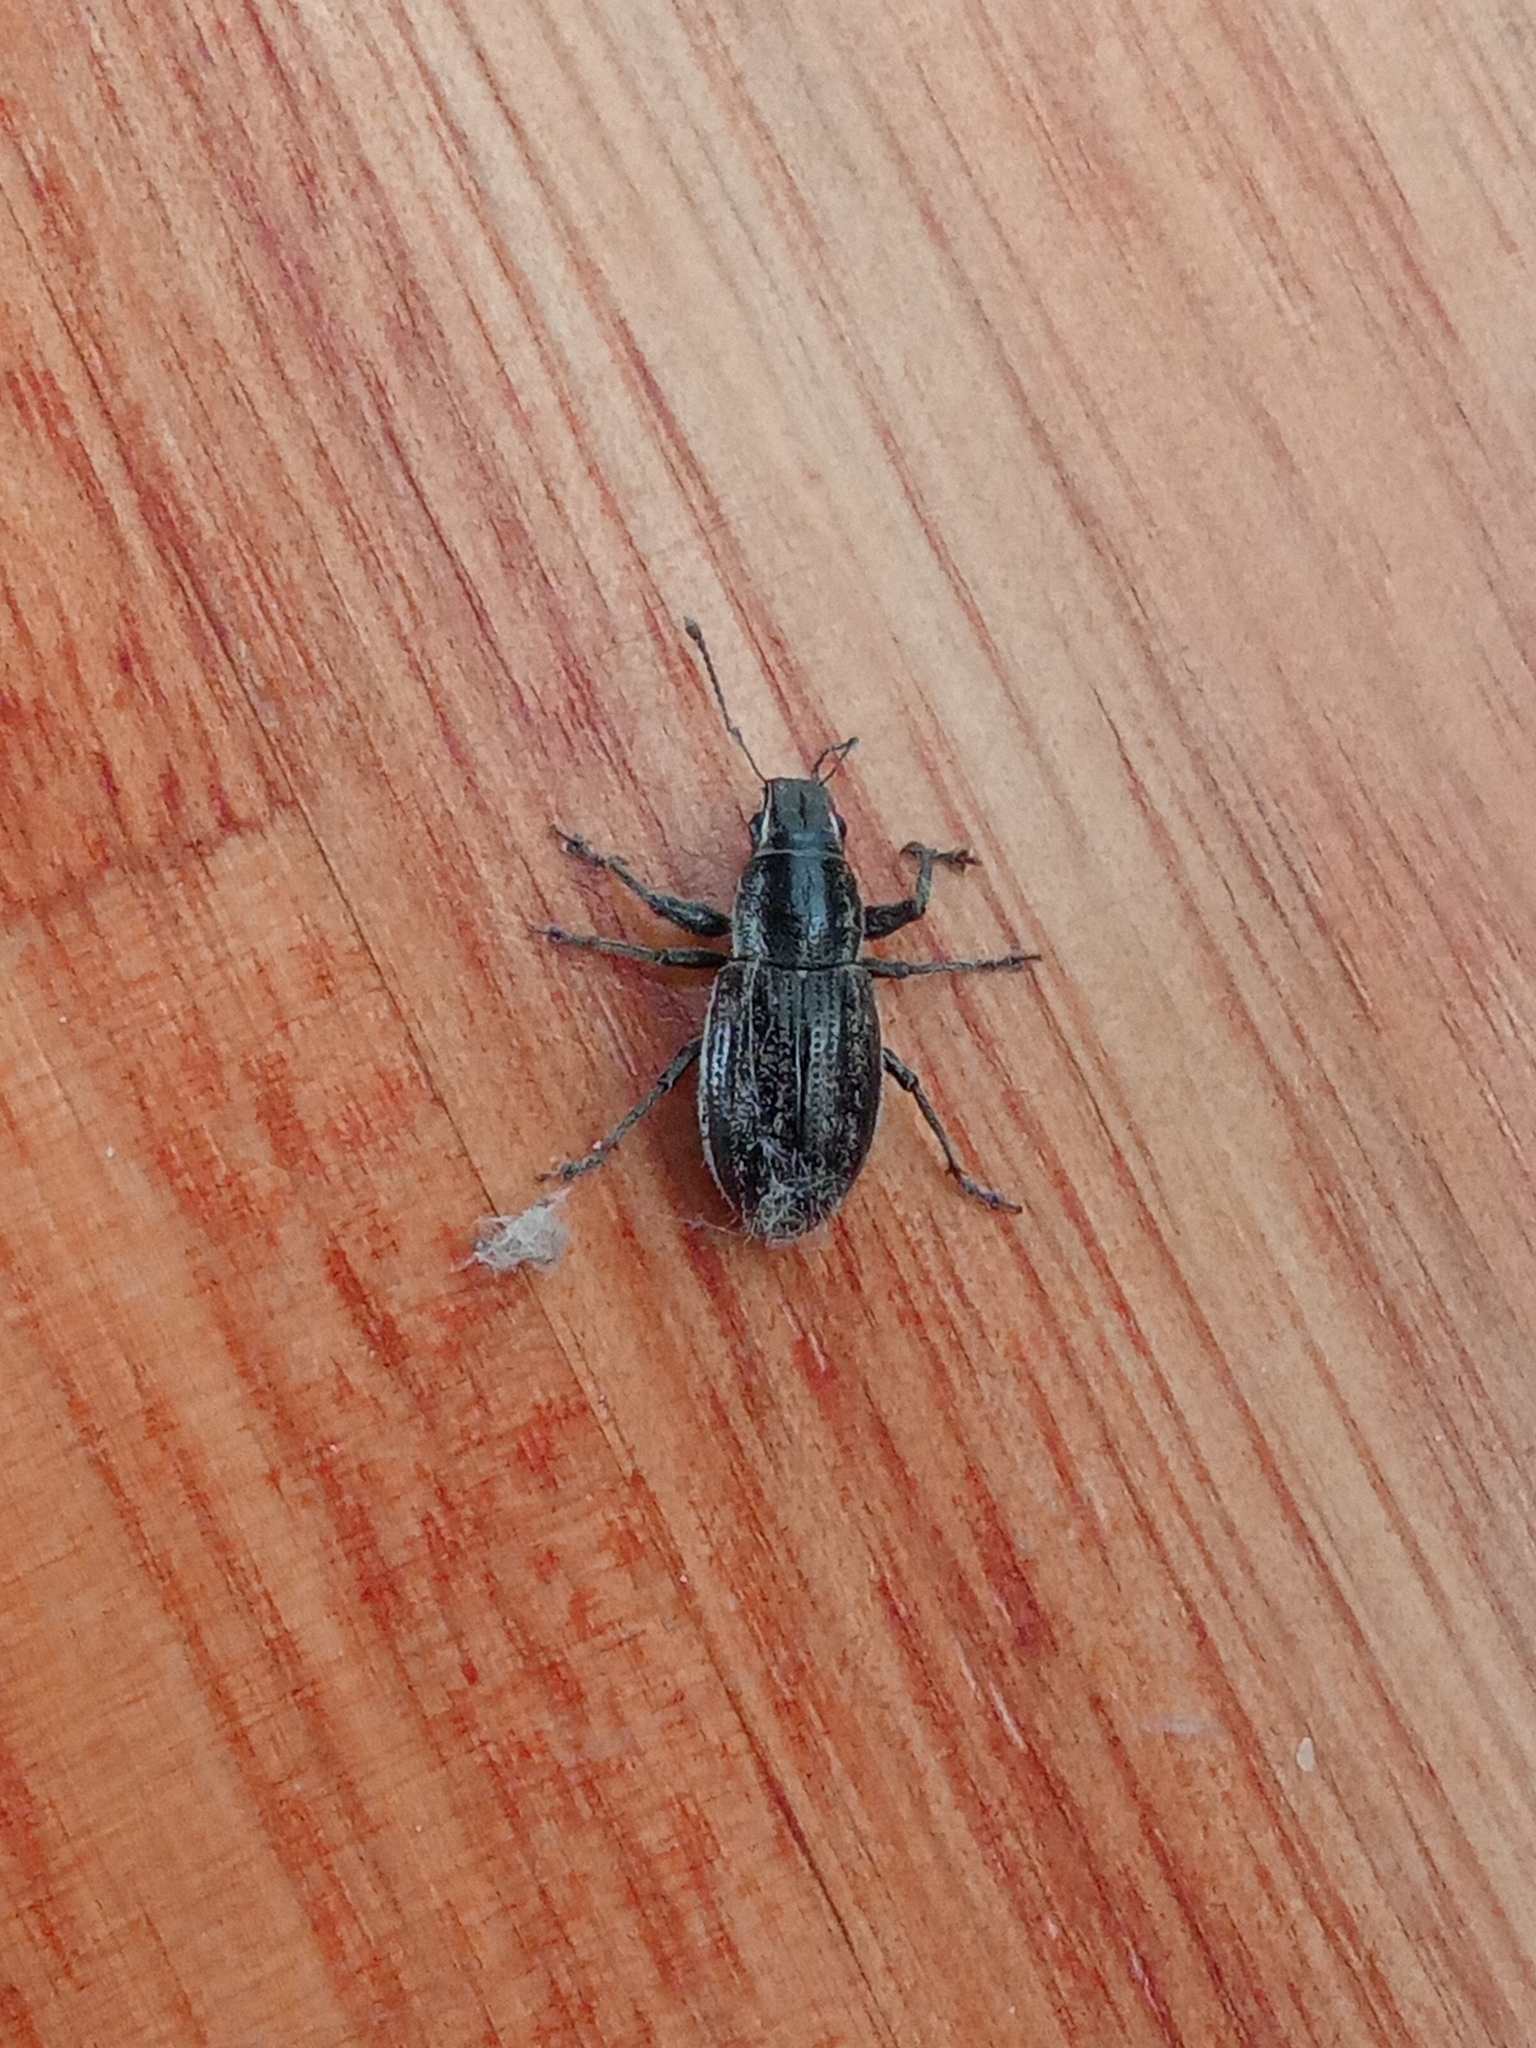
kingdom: Animalia
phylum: Arthropoda
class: Insecta
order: Coleoptera
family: Curculionidae
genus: Naupactus
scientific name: Naupactus leucoloma
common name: Whitefringed beetle
